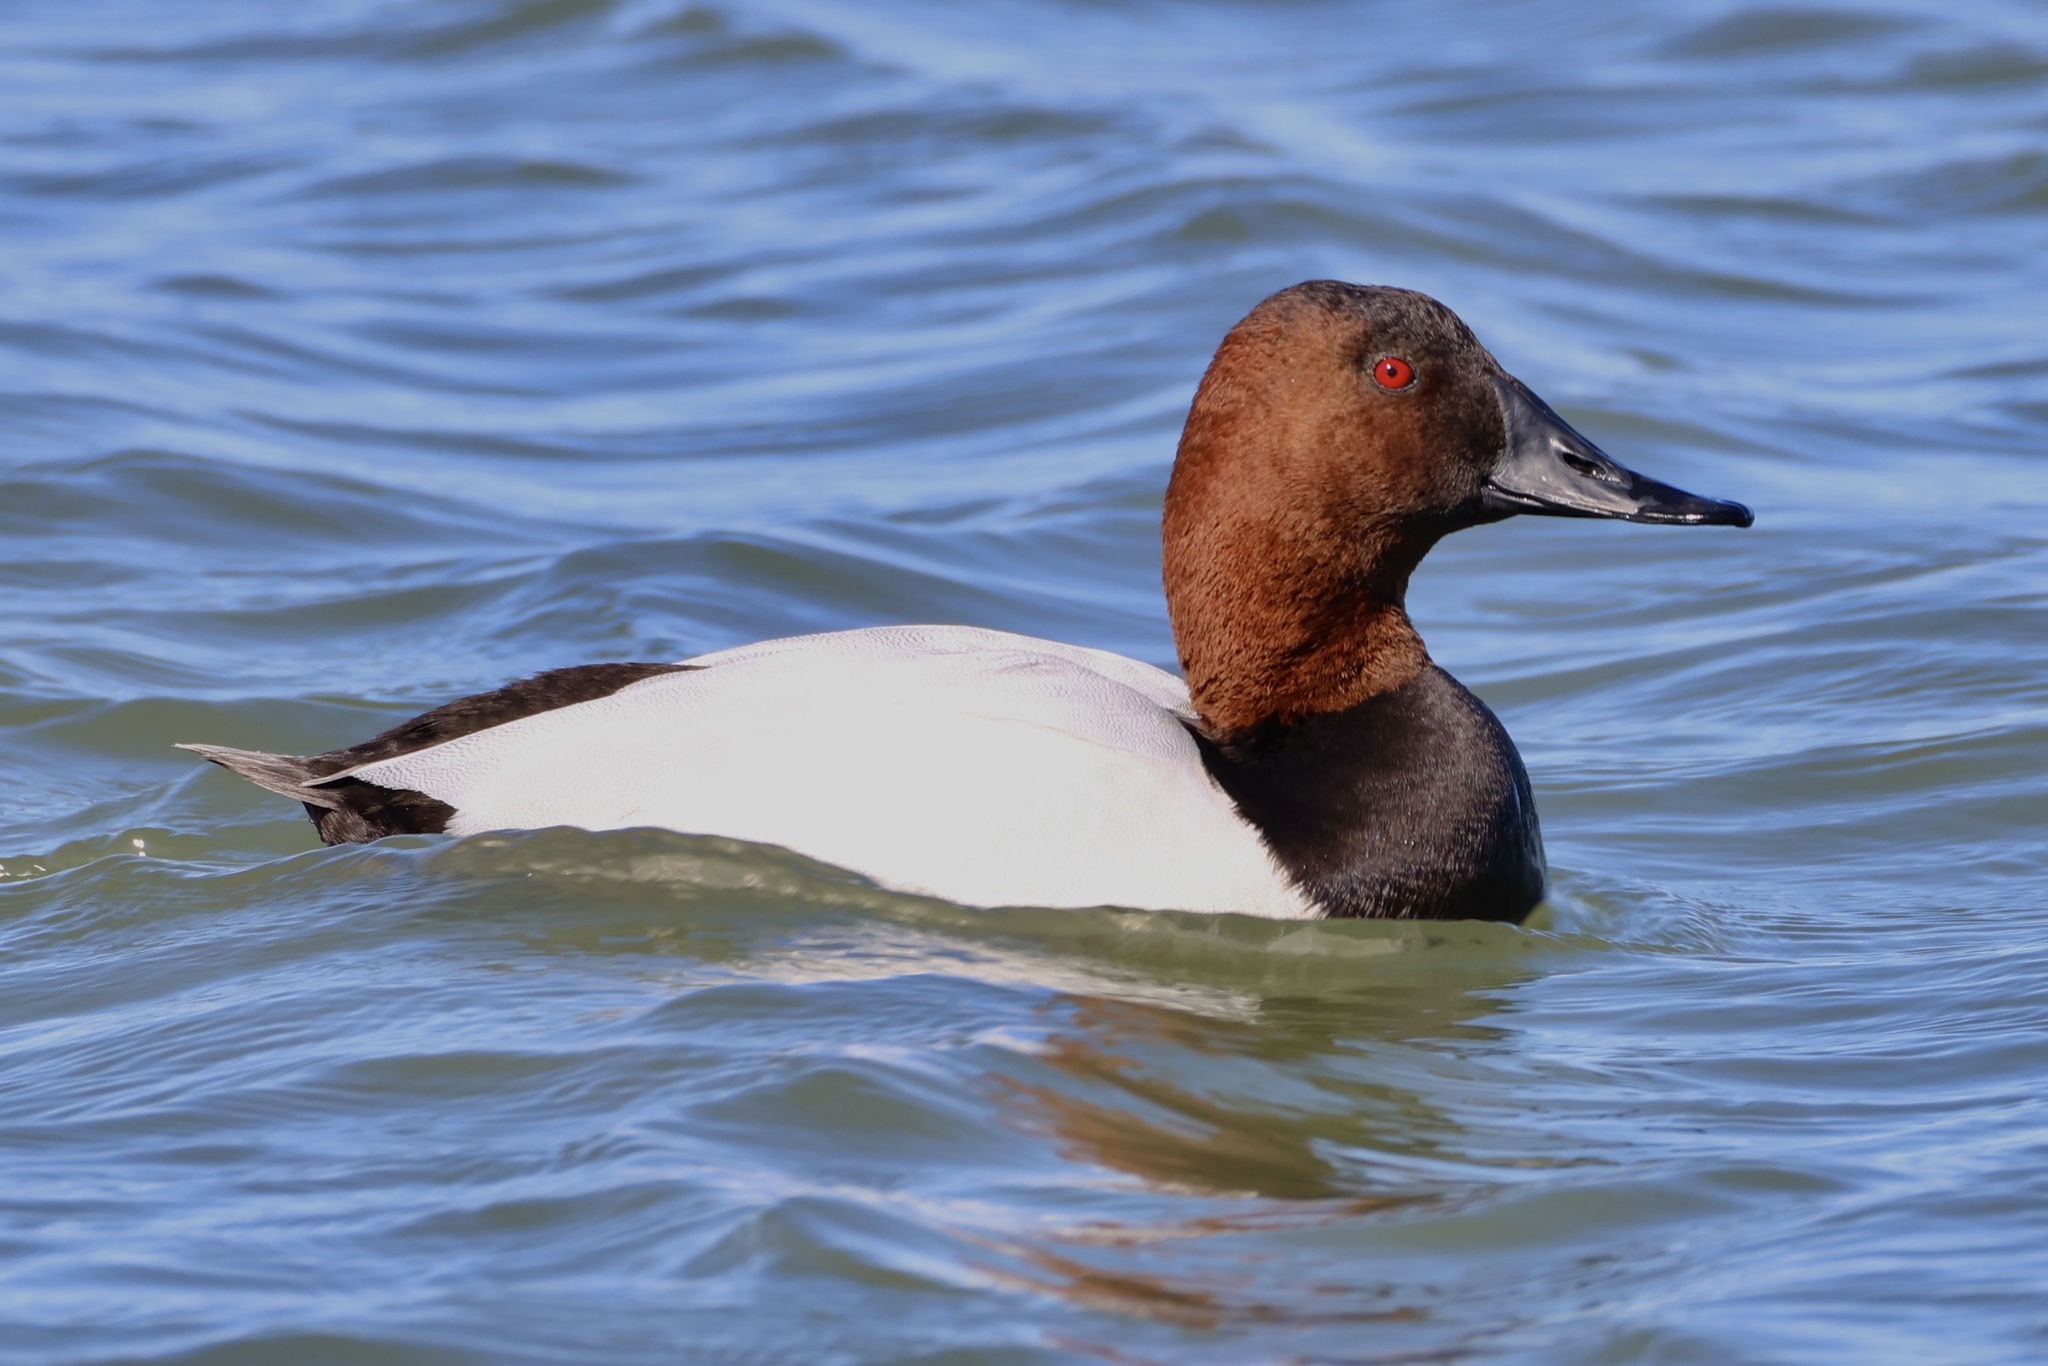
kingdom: Animalia
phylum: Chordata
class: Aves
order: Anseriformes
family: Anatidae
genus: Aythya
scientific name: Aythya valisineria
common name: Canvasback
